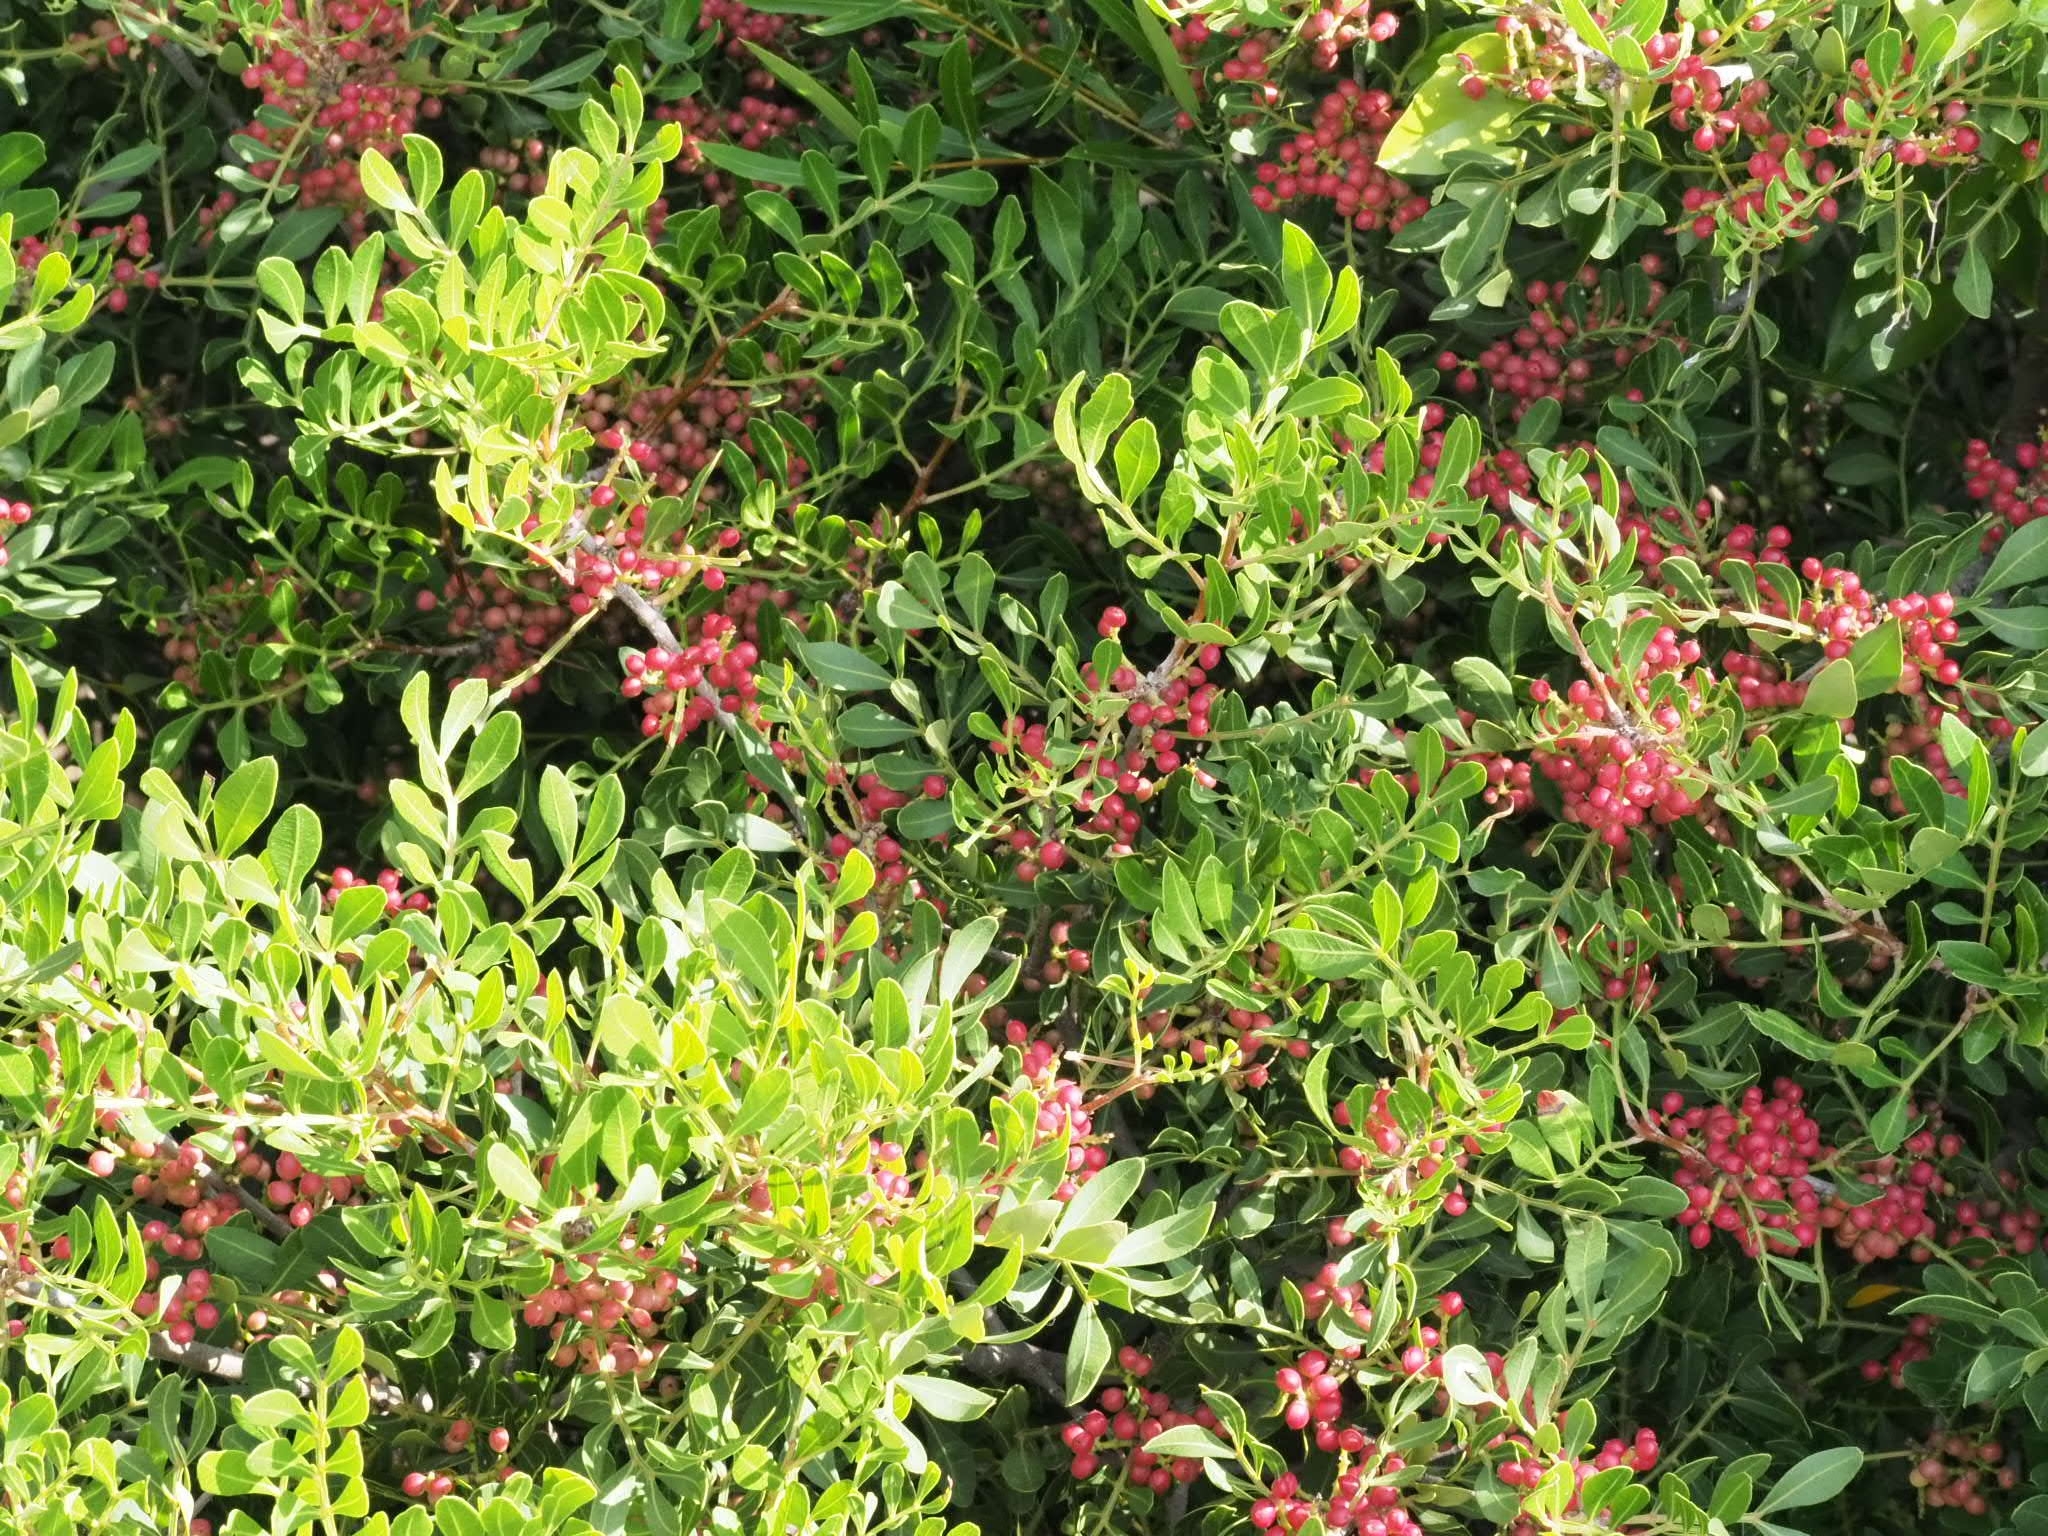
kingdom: Plantae
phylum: Tracheophyta
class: Magnoliopsida
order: Sapindales
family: Anacardiaceae
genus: Pistacia
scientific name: Pistacia lentiscus
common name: Lentisk
